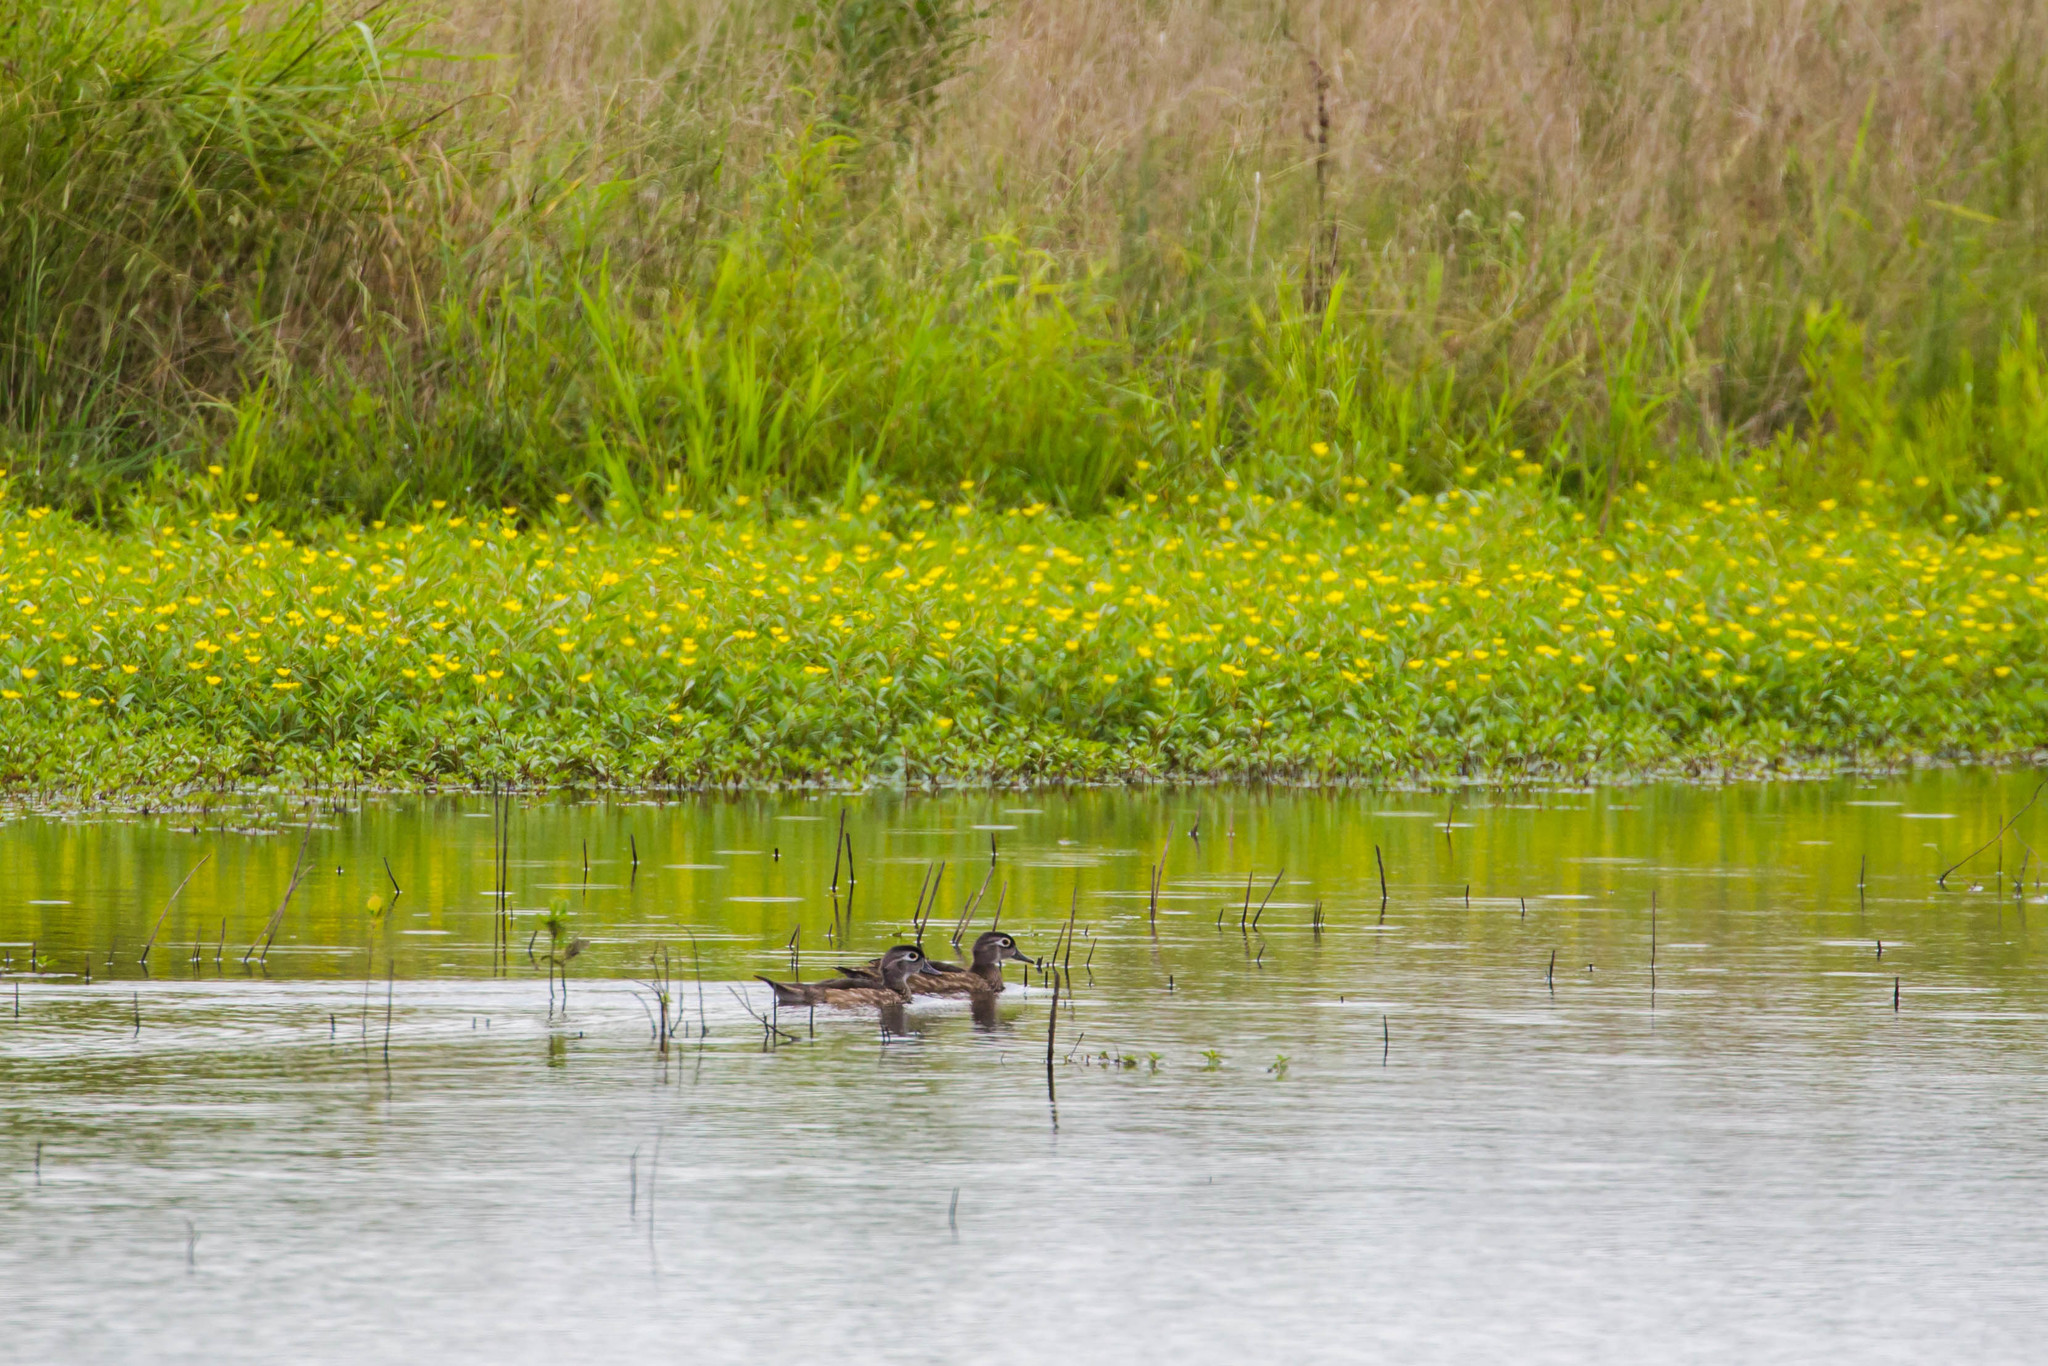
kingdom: Animalia
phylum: Chordata
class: Aves
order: Anseriformes
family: Anatidae
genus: Aix
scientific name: Aix sponsa
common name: Wood duck
